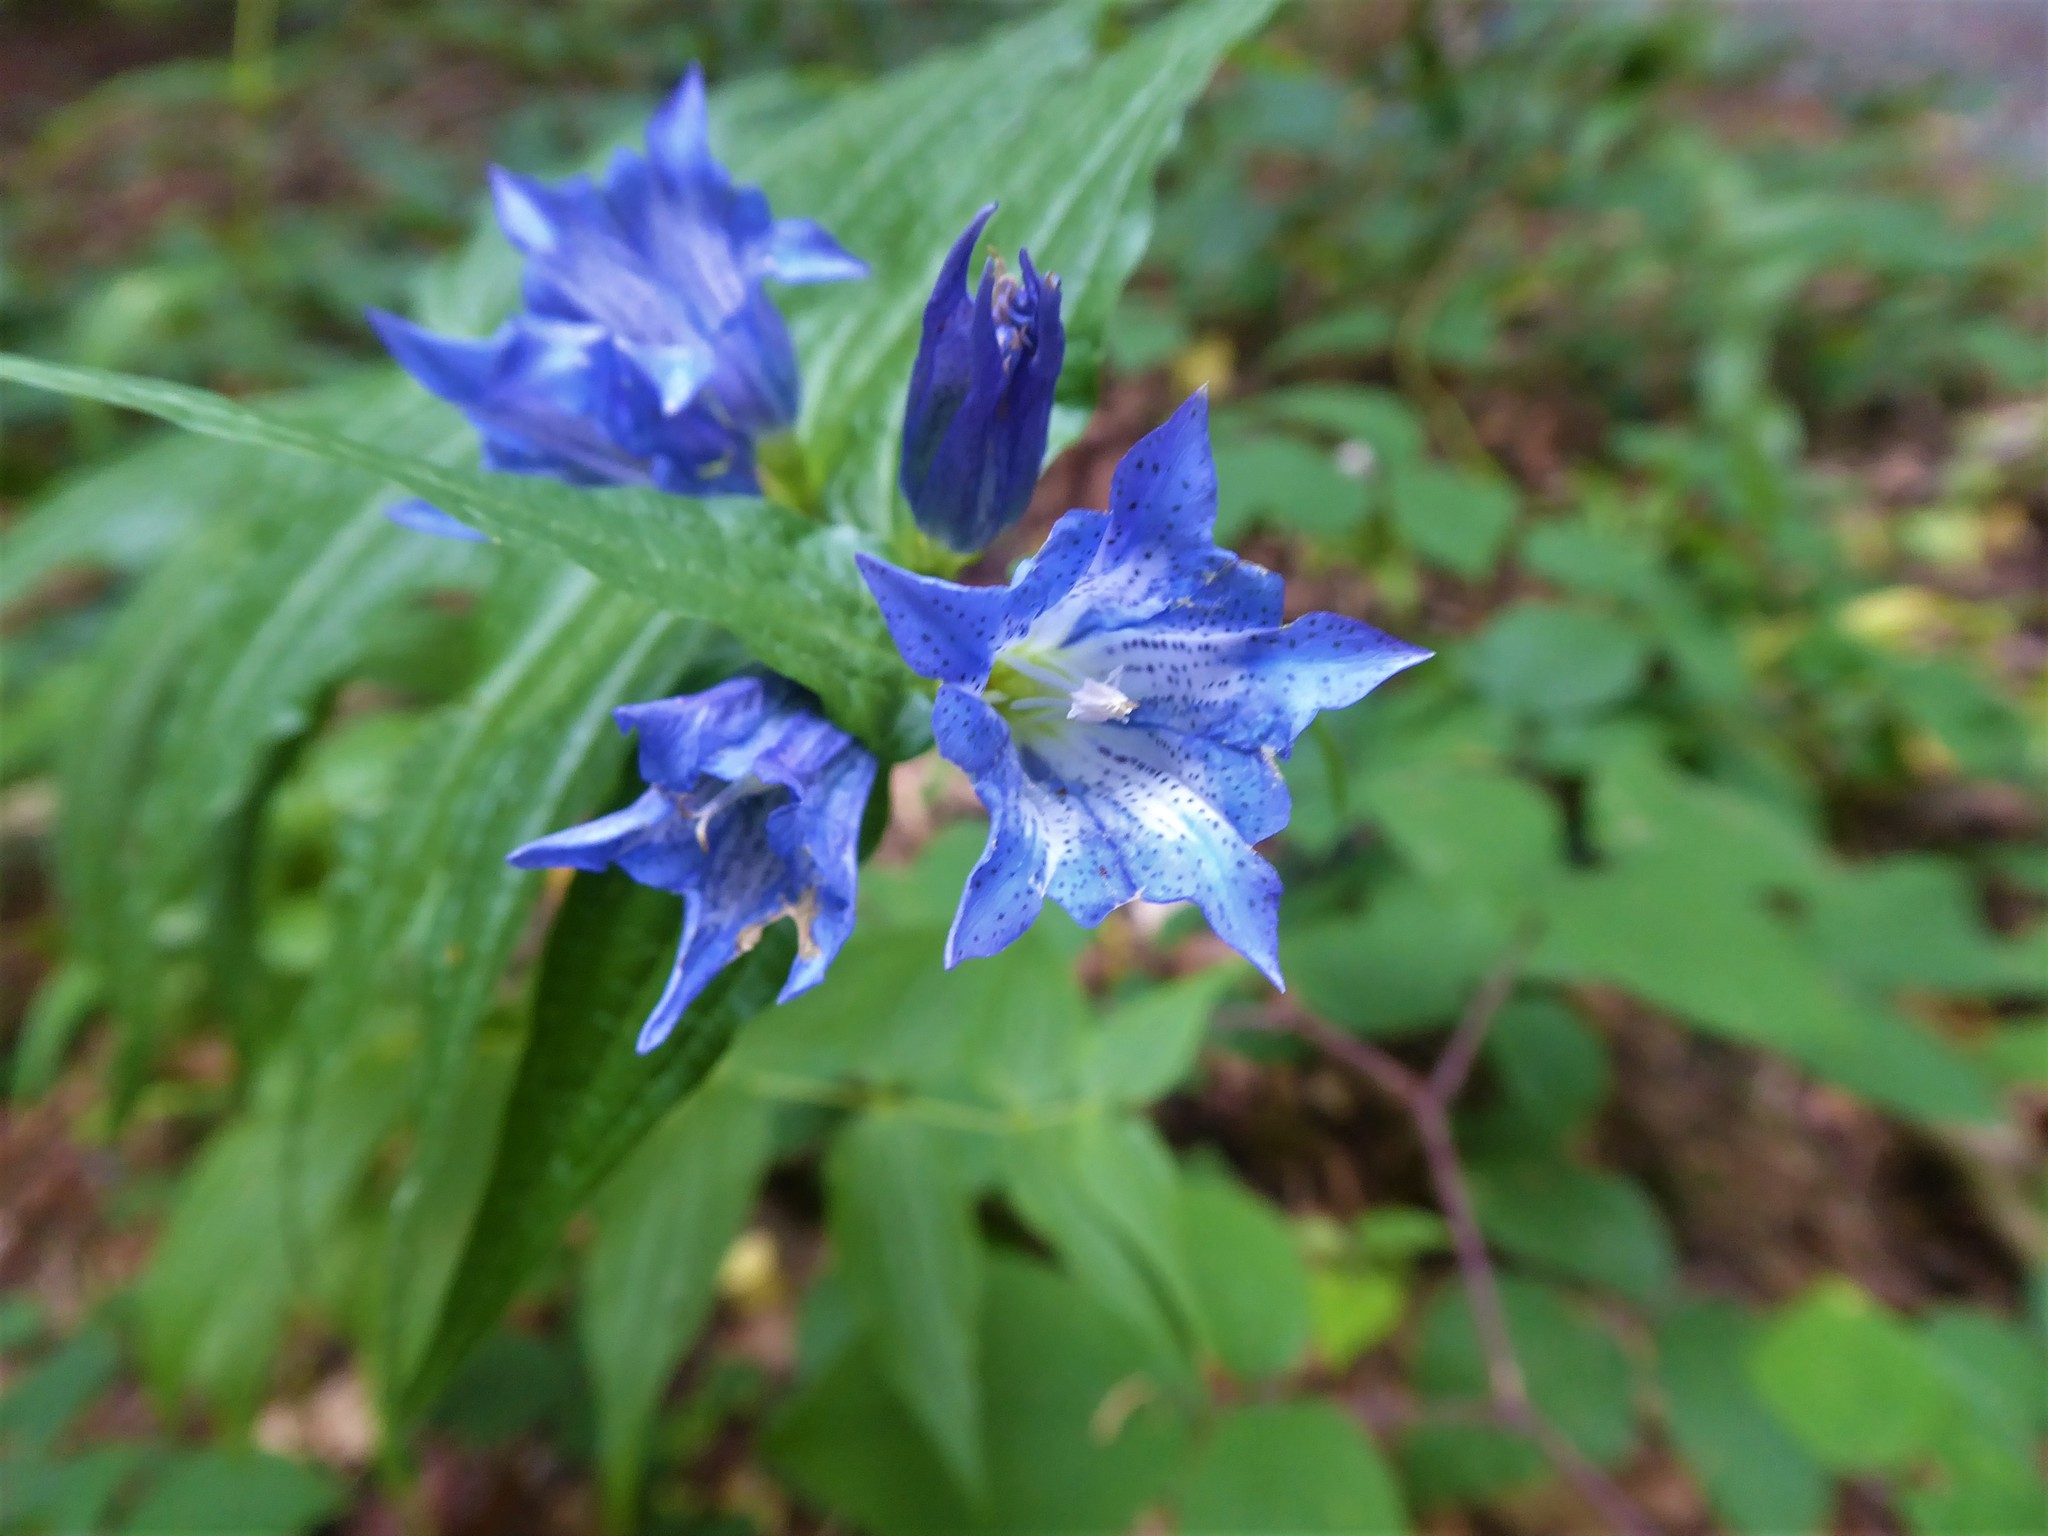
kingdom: Plantae
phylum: Tracheophyta
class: Magnoliopsida
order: Gentianales
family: Gentianaceae
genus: Gentiana
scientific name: Gentiana asclepiadea
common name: Willow gentian
